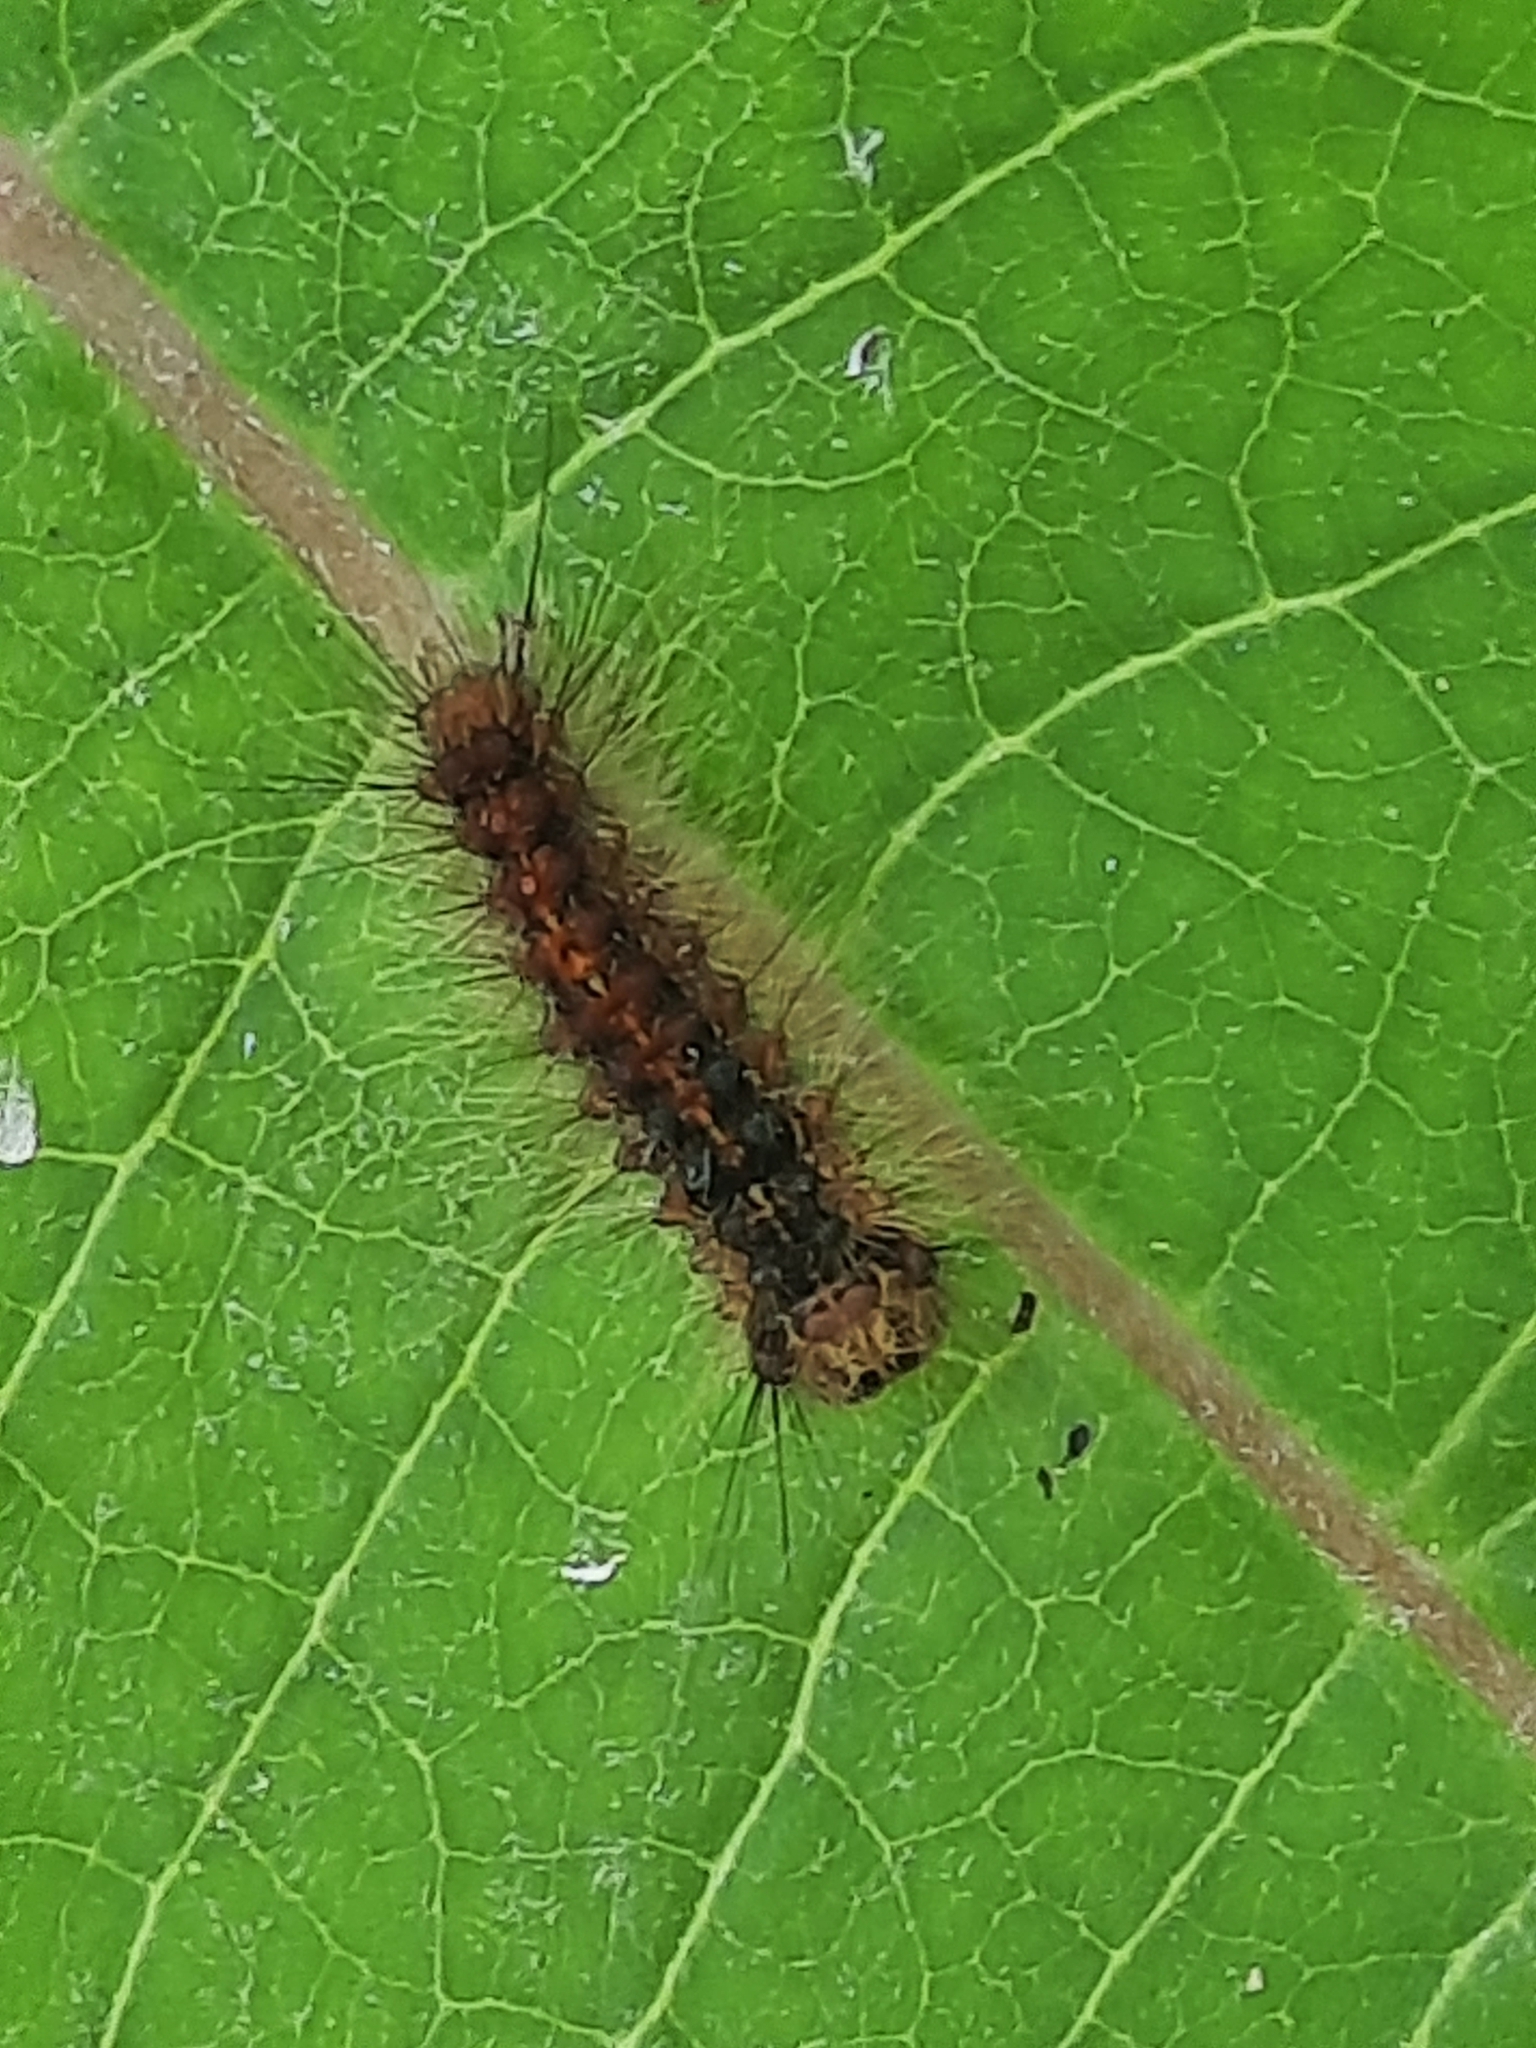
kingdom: Animalia
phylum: Arthropoda
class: Insecta
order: Lepidoptera
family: Erebidae
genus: Lymantria
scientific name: Lymantria dispar
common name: Gypsy moth
